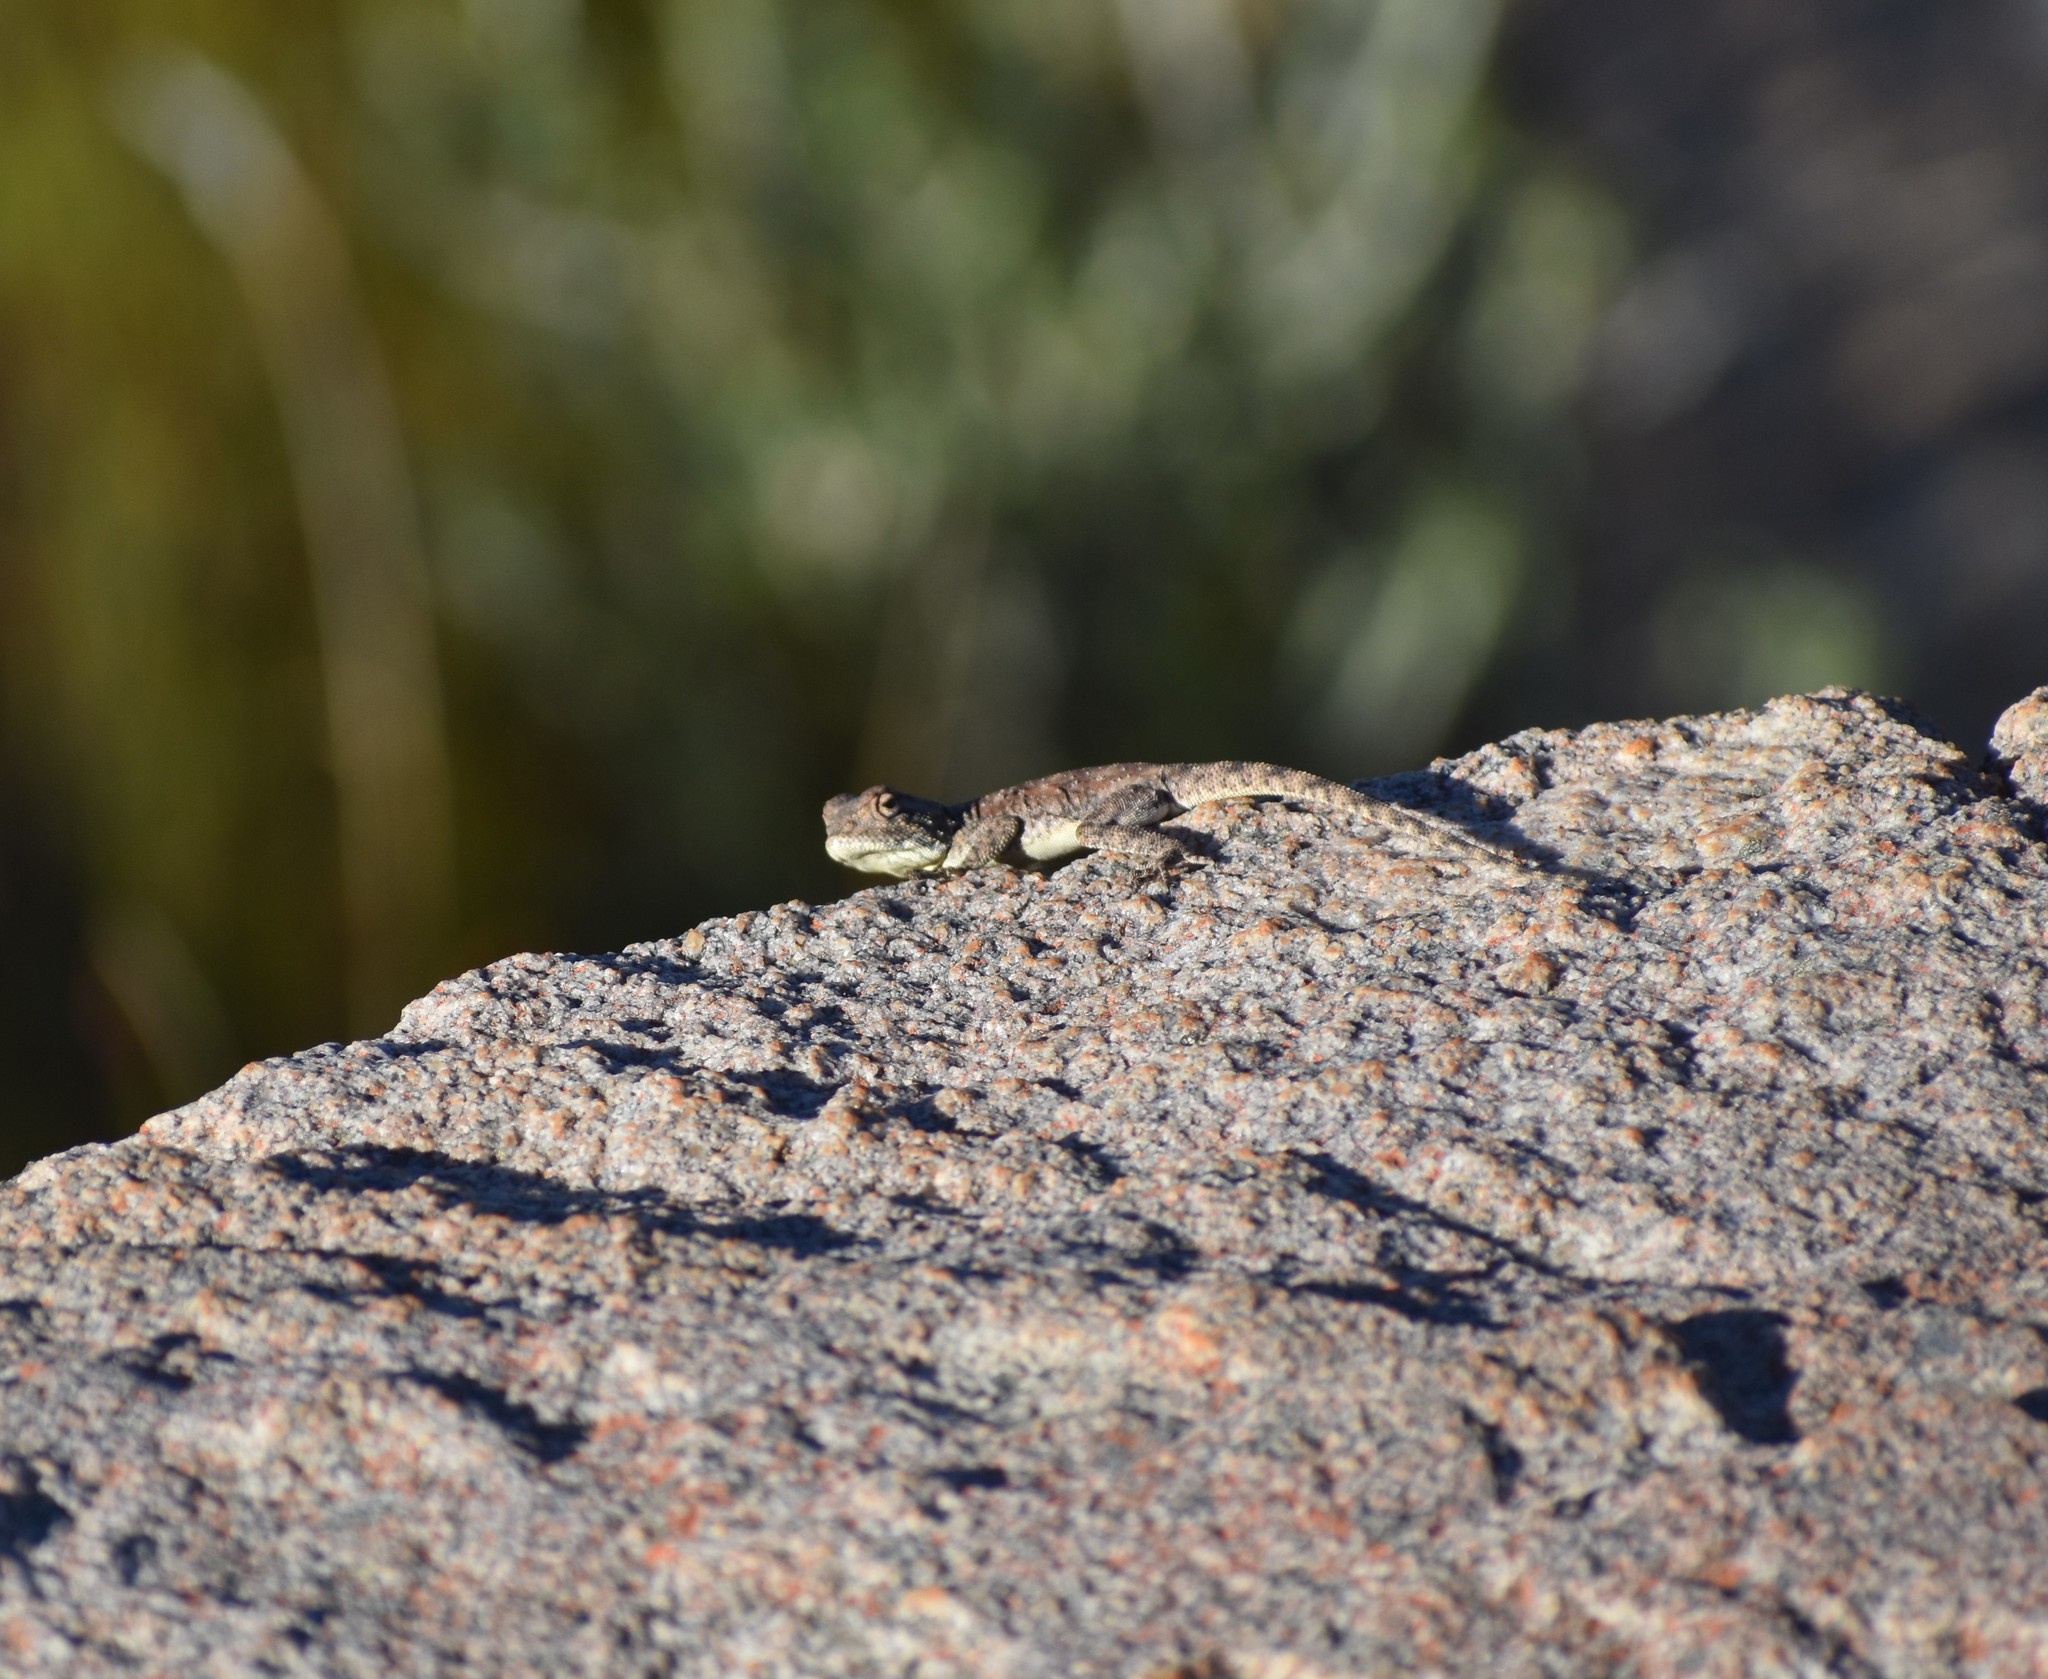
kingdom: Animalia
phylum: Chordata
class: Squamata
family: Agamidae
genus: Agama
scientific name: Agama atra
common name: Southern african rock agama
